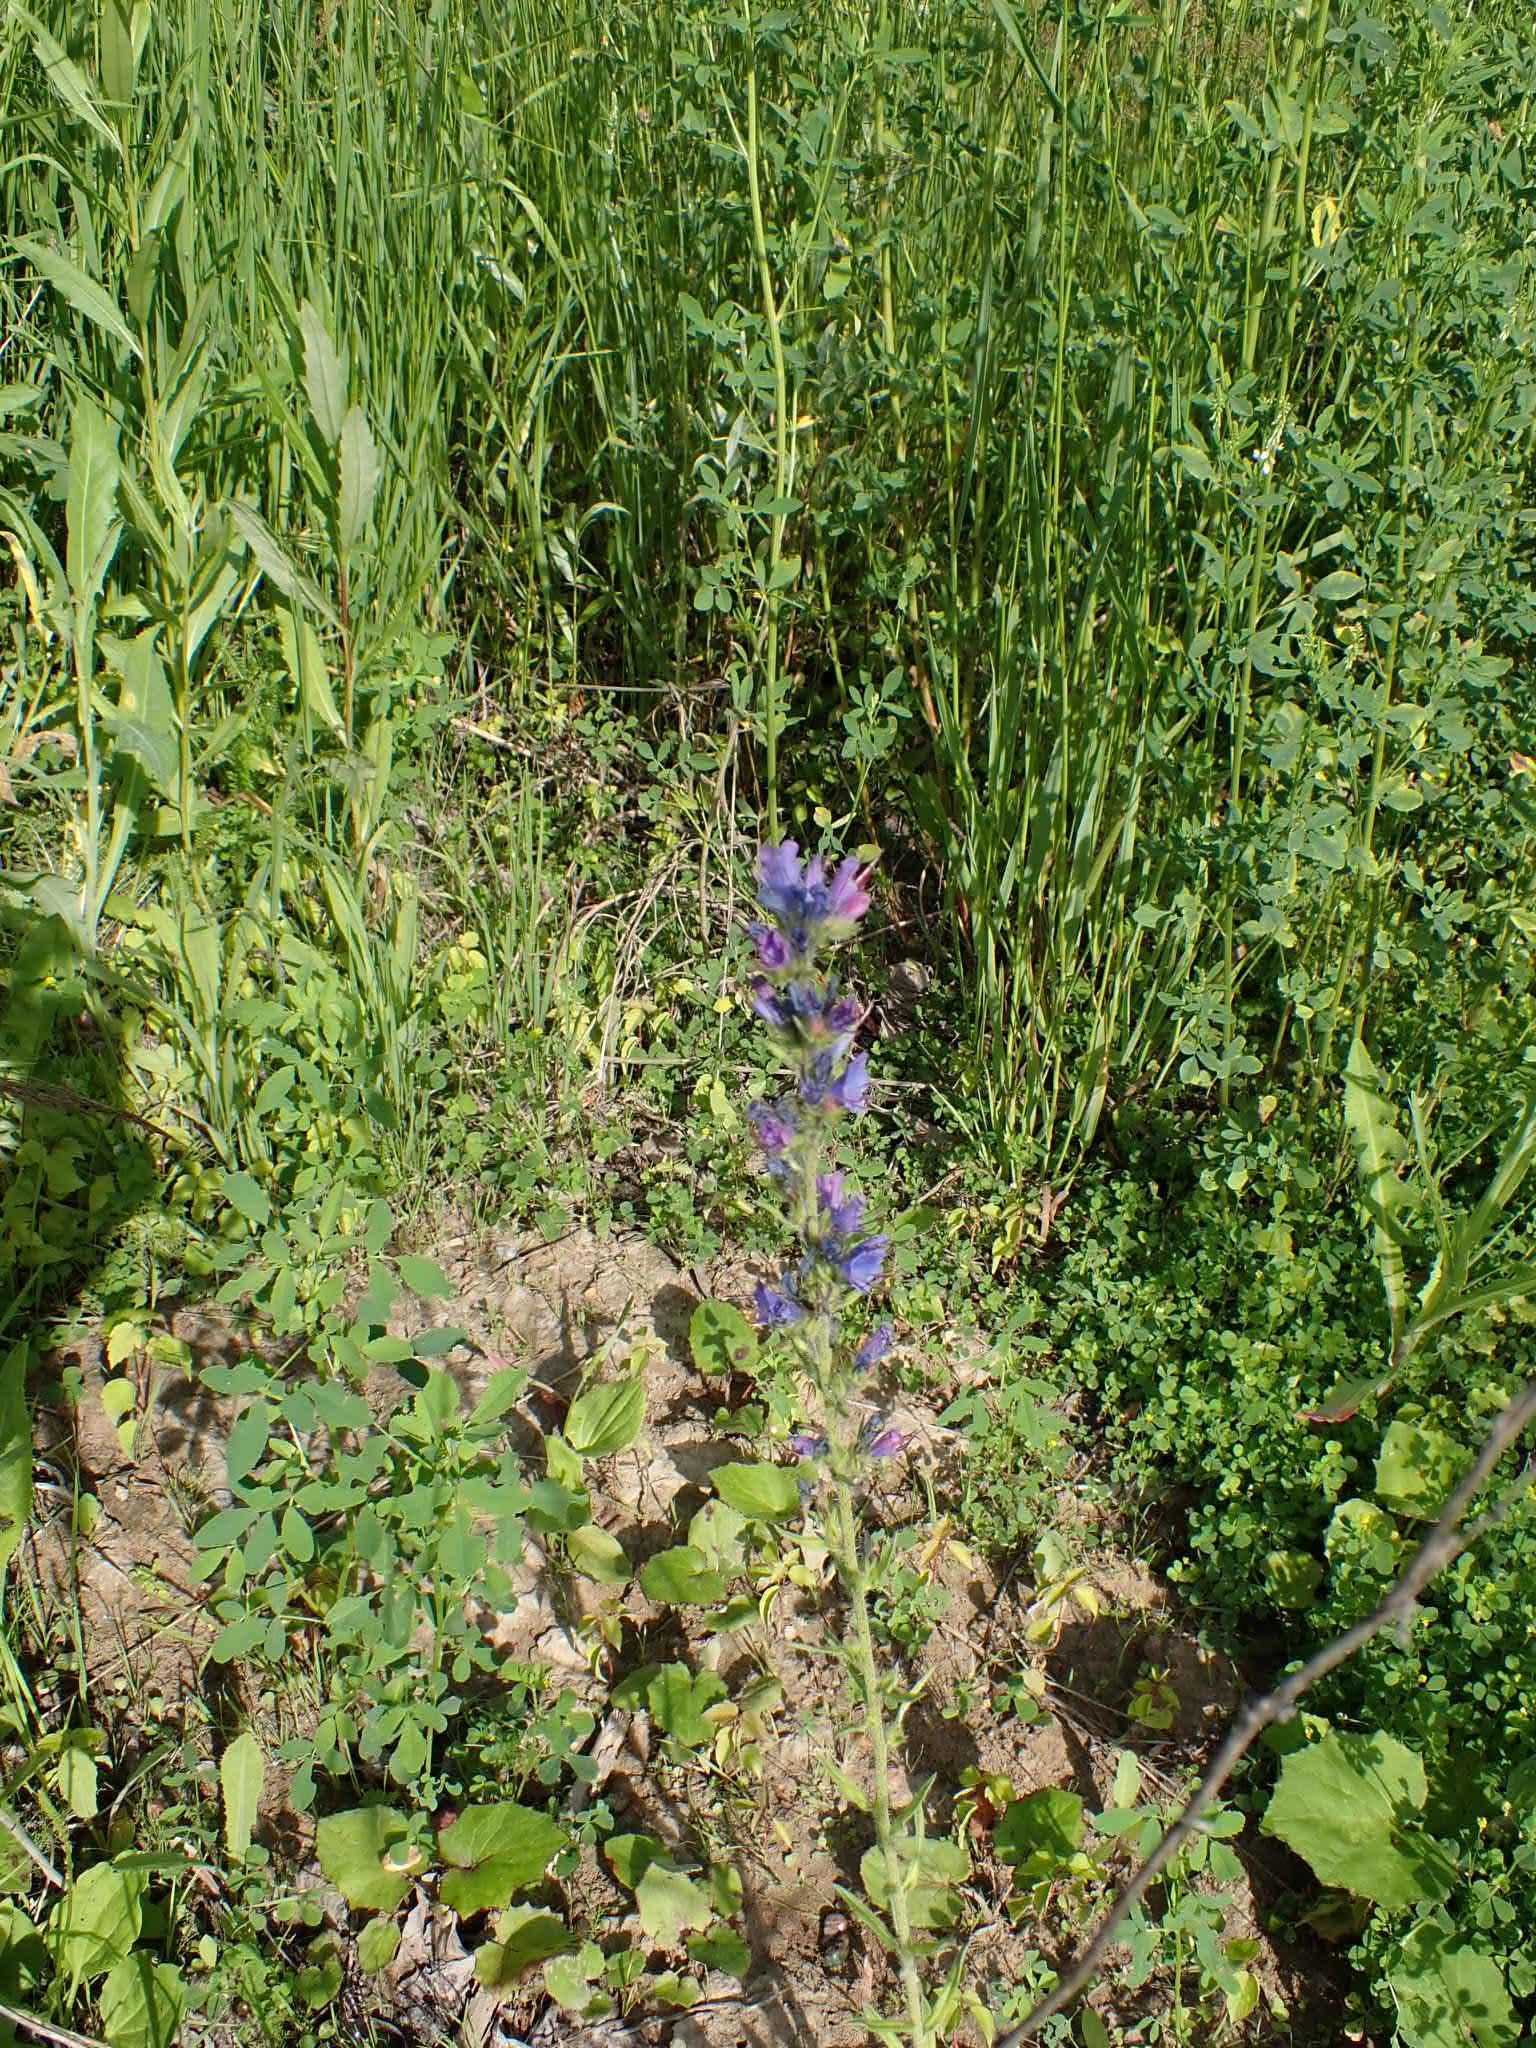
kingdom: Plantae
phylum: Tracheophyta
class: Magnoliopsida
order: Boraginales
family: Boraginaceae
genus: Echium
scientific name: Echium vulgare
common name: Common viper's bugloss
